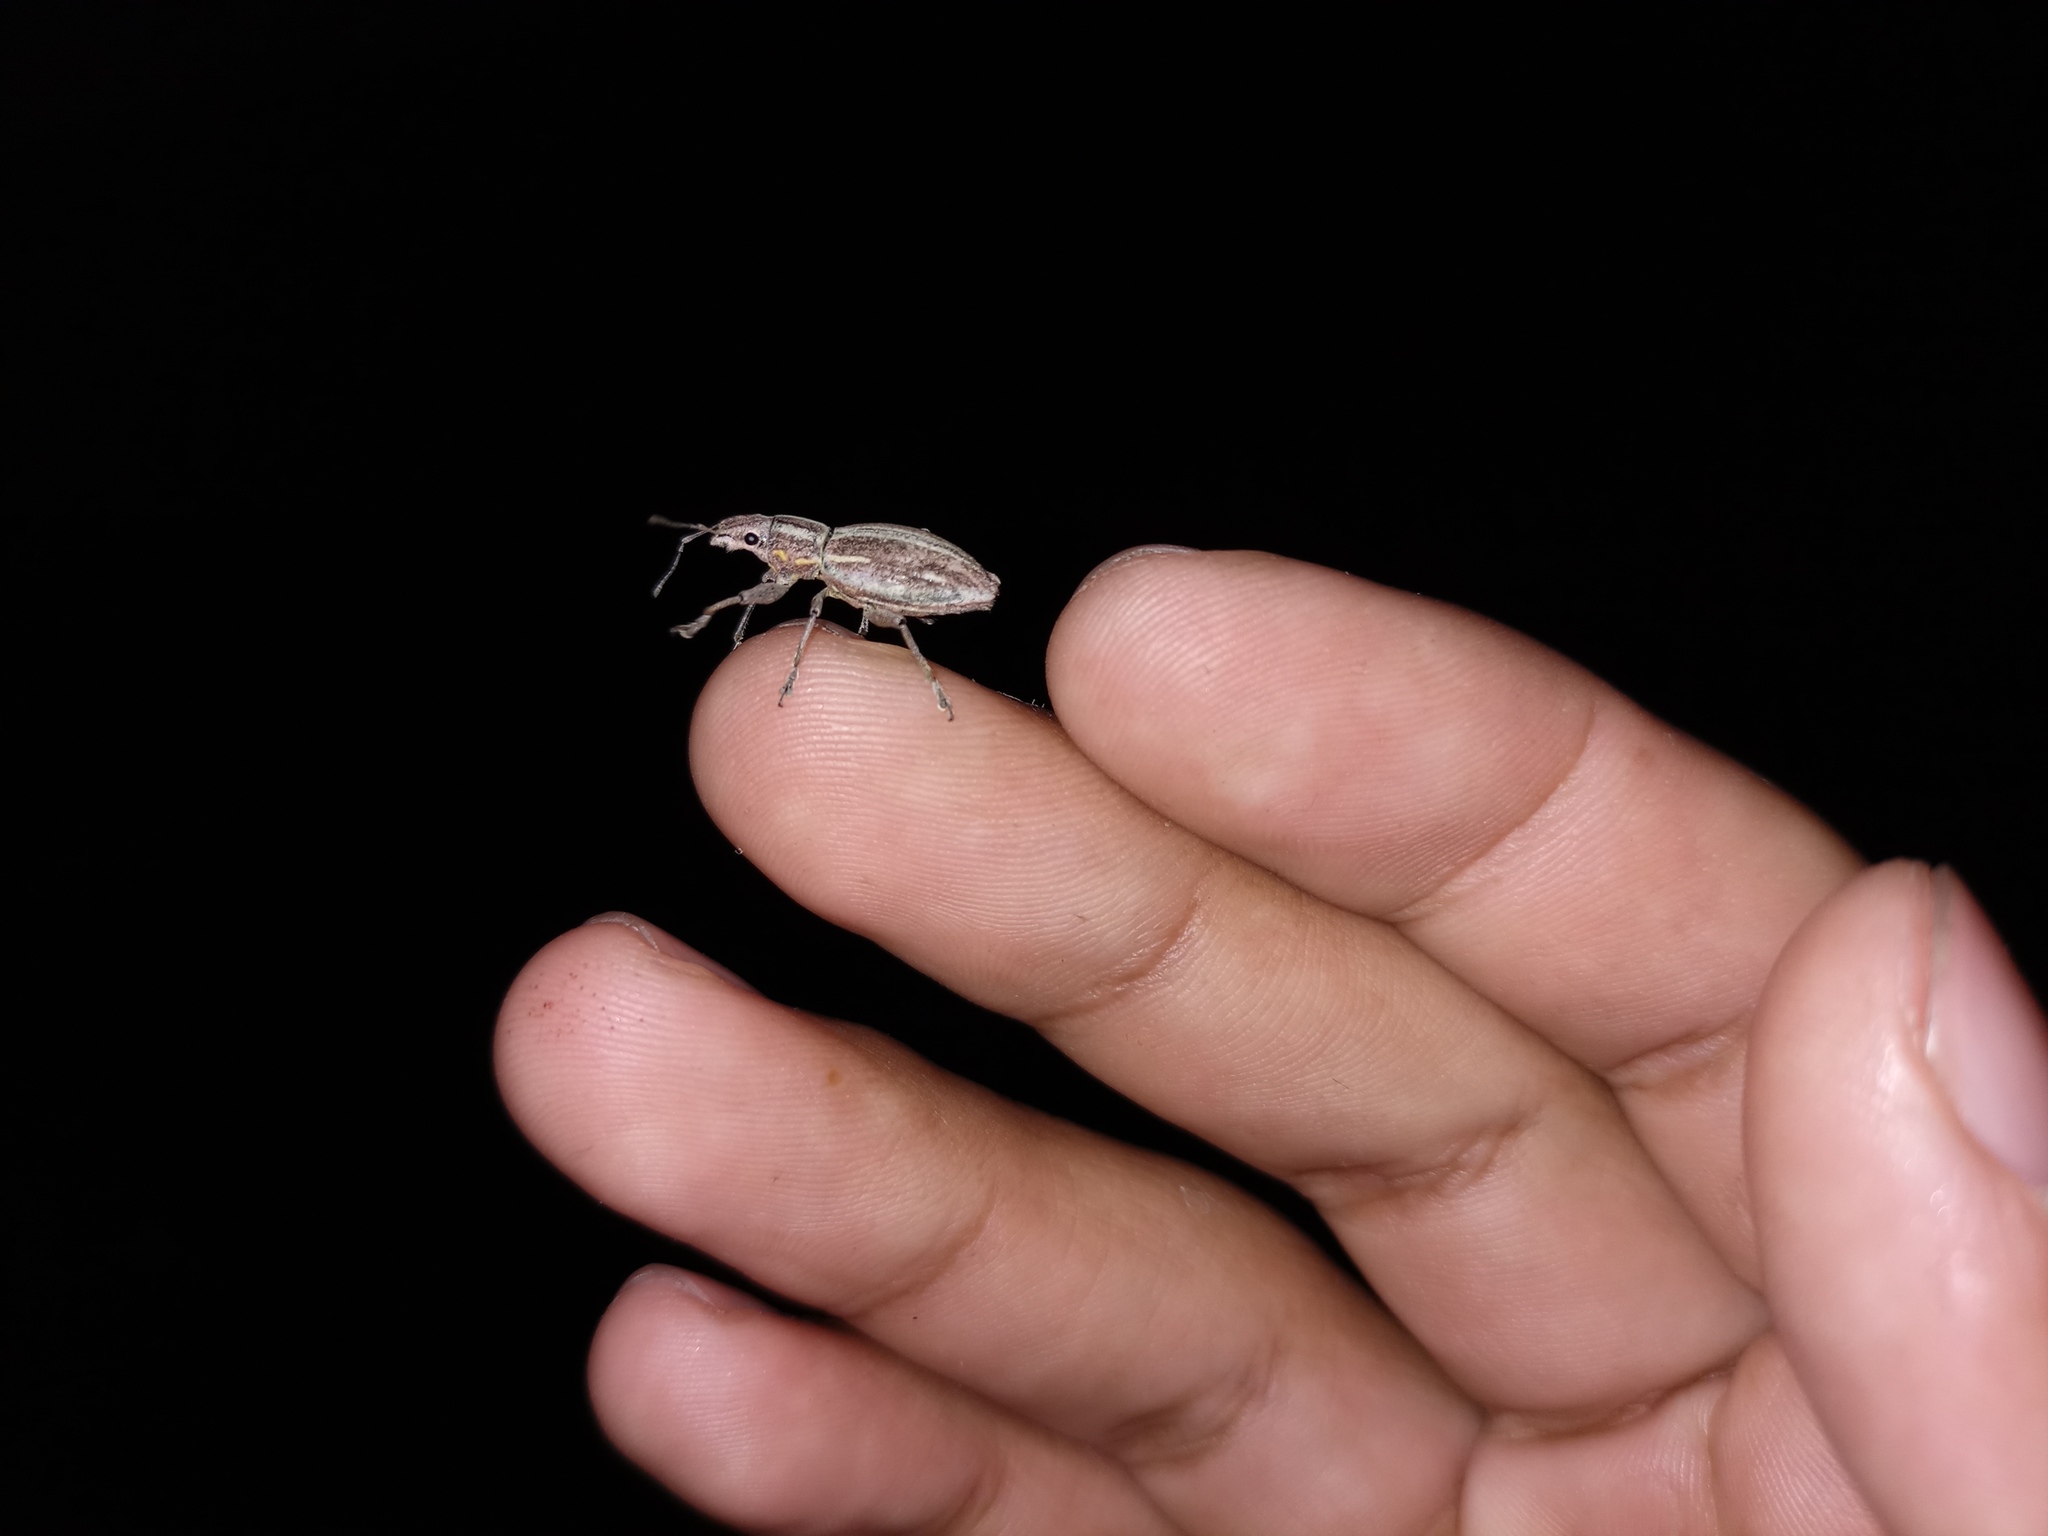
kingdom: Animalia
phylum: Arthropoda
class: Insecta
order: Coleoptera
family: Curculionidae
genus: Naupactus
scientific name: Naupactus xanthographus
